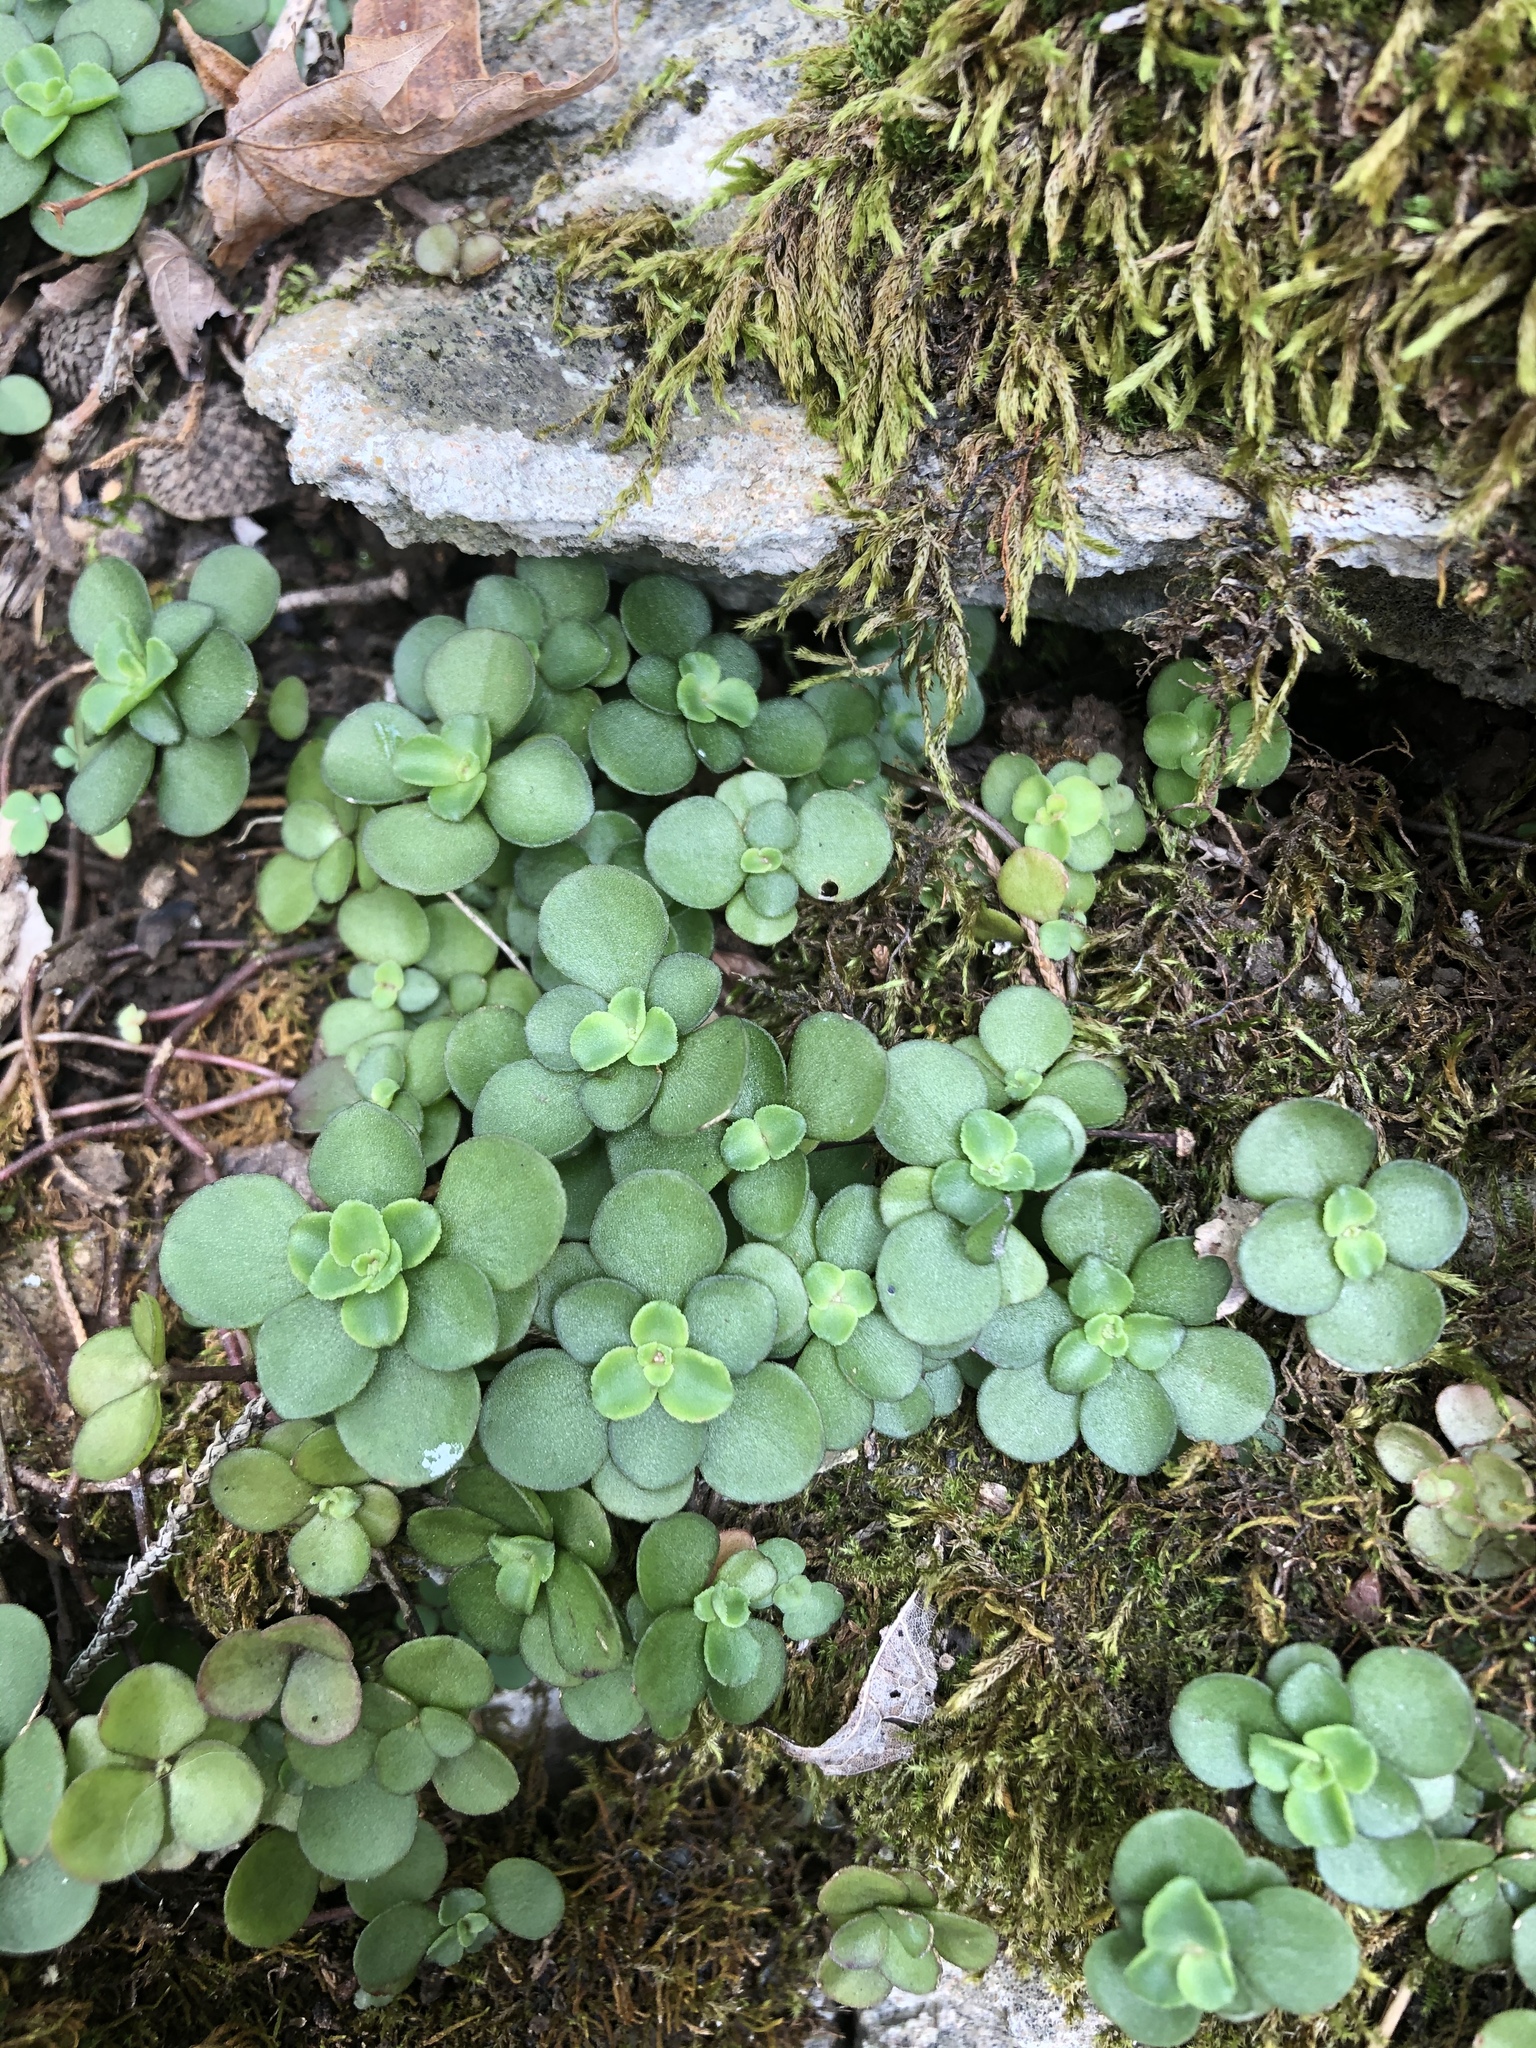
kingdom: Plantae
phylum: Tracheophyta
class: Magnoliopsida
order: Saxifragales
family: Crassulaceae
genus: Sedum
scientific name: Sedum ternatum
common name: Wild stonecrop
